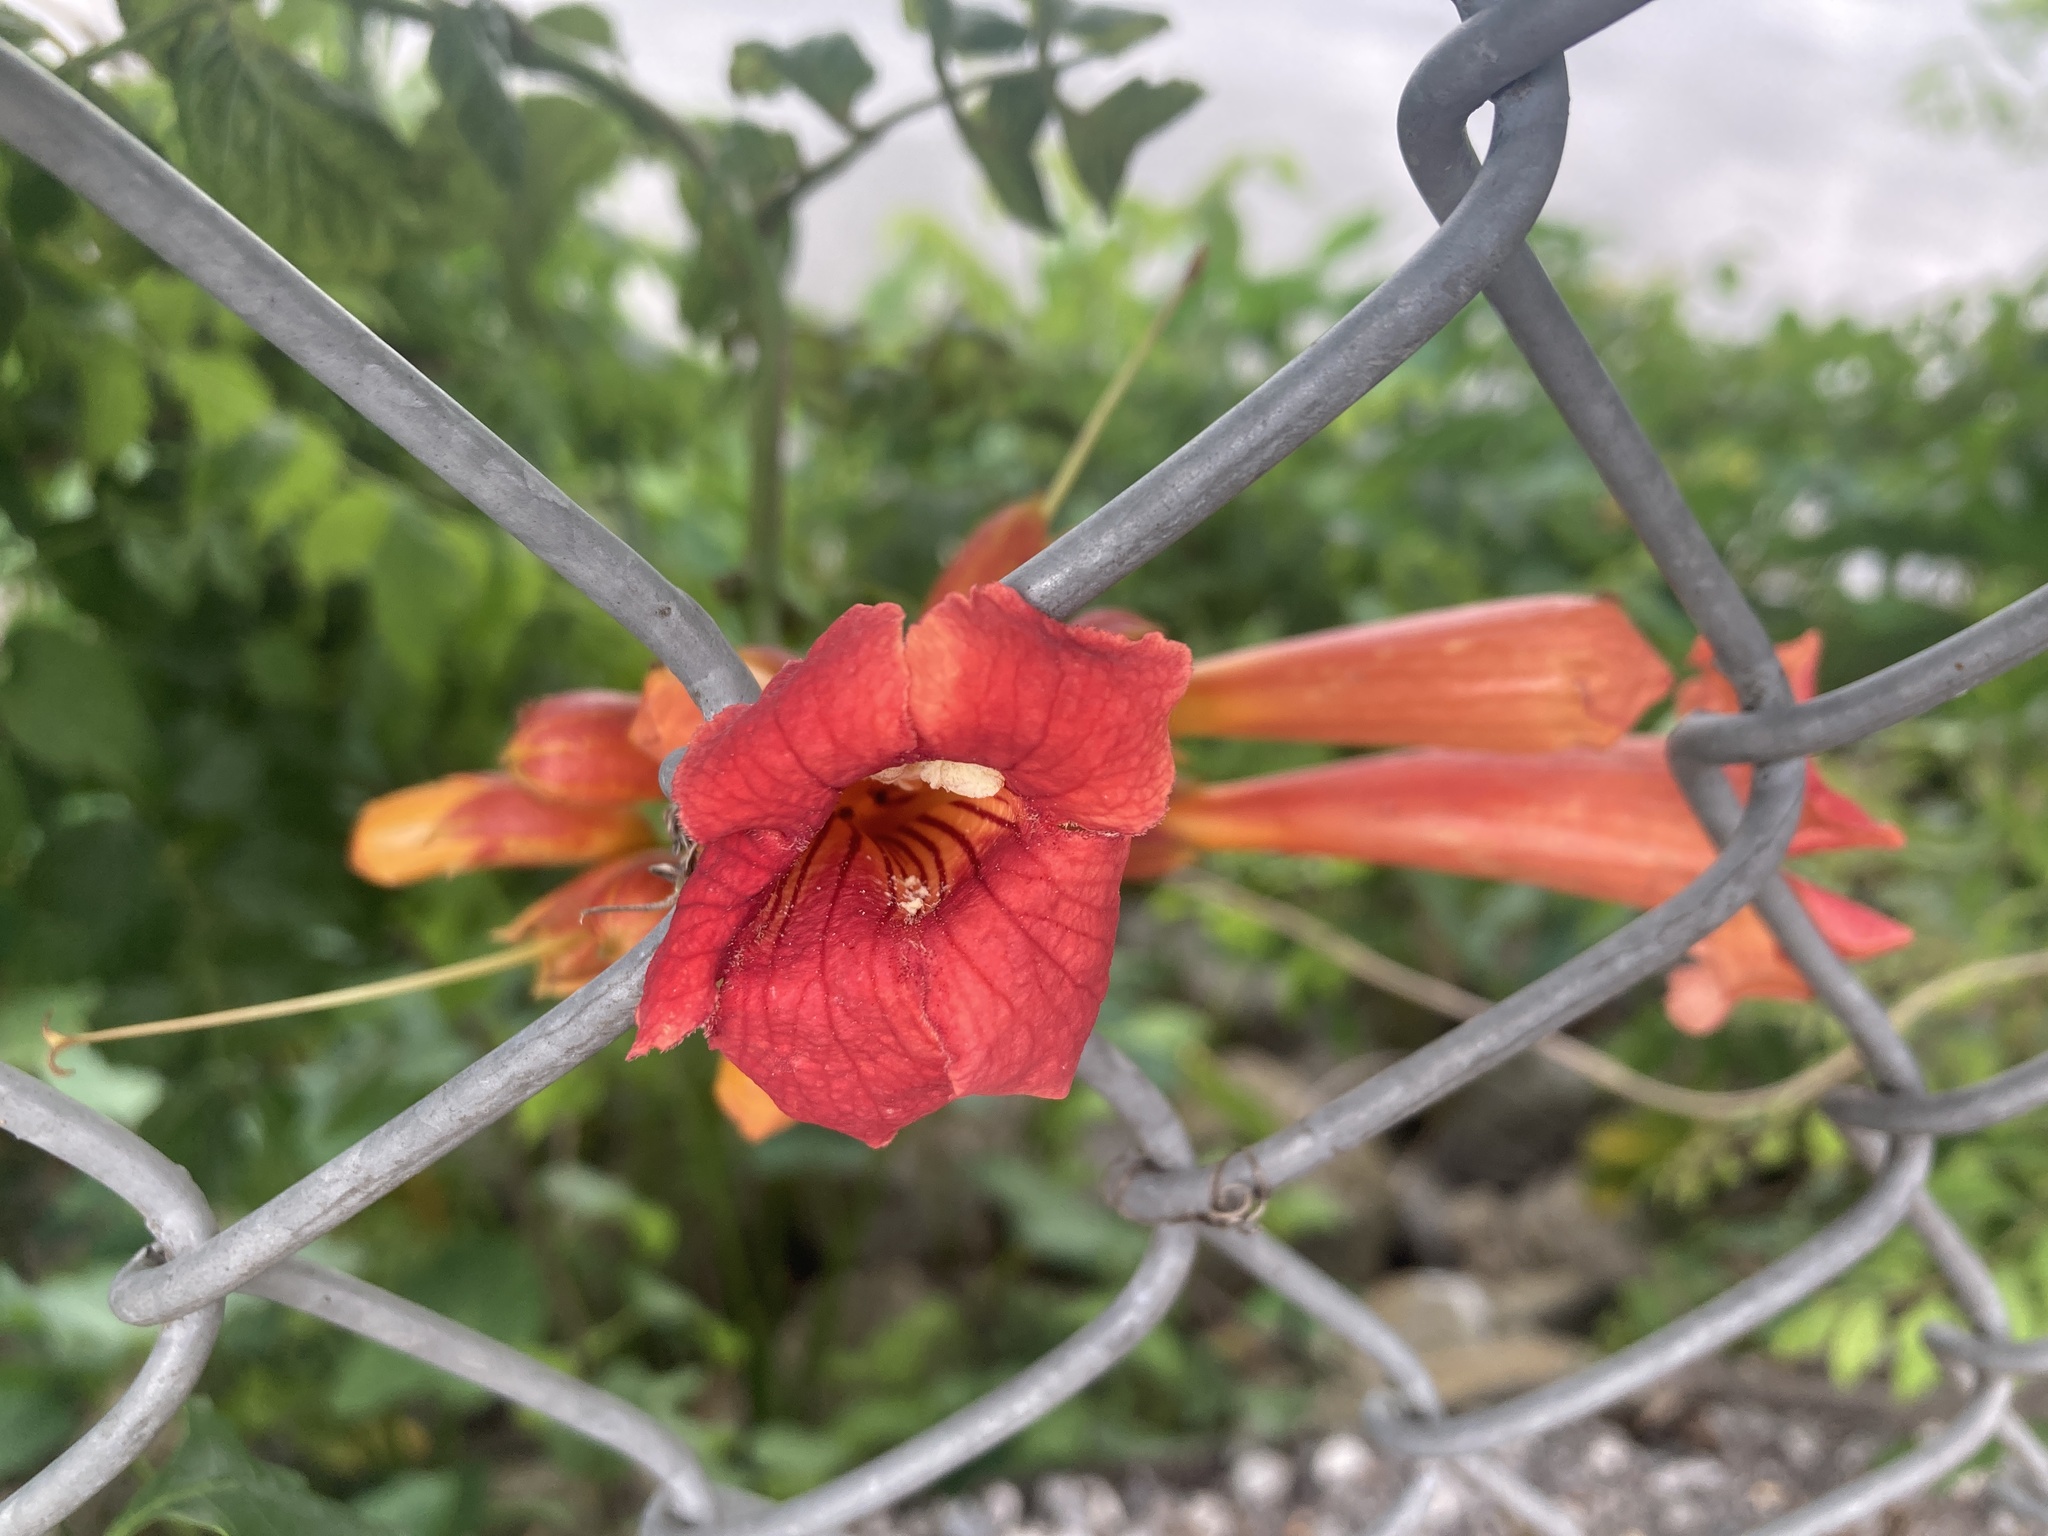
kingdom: Plantae
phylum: Tracheophyta
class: Magnoliopsida
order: Lamiales
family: Bignoniaceae
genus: Campsis
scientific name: Campsis radicans
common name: Trumpet-creeper
